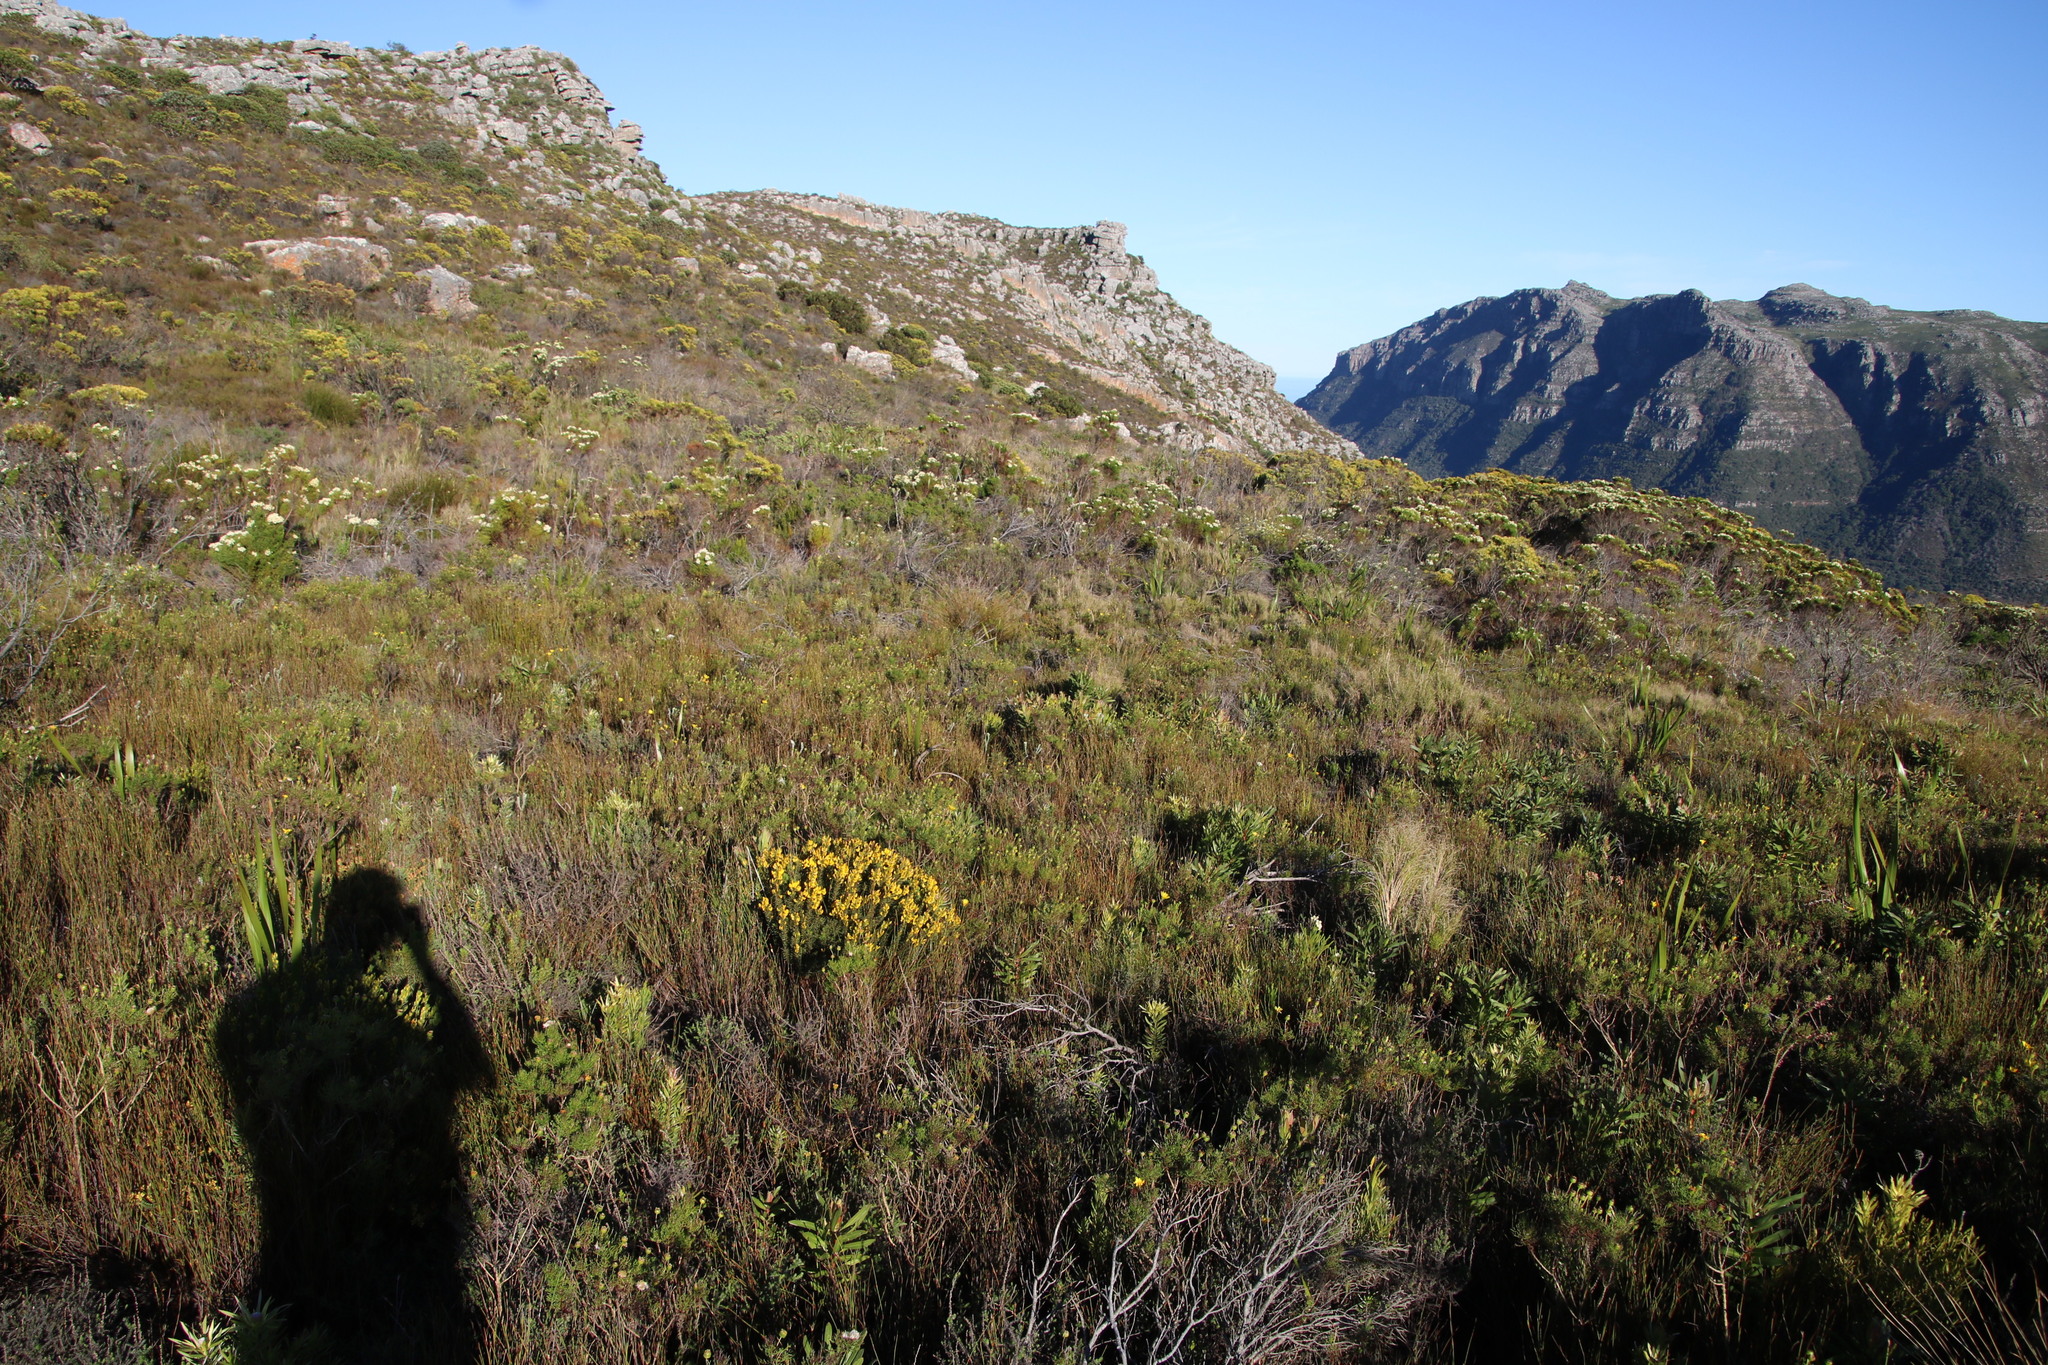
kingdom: Plantae
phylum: Tracheophyta
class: Magnoliopsida
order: Fabales
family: Fabaceae
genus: Cyclopia
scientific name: Cyclopia genistoides
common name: Honeybush tea
